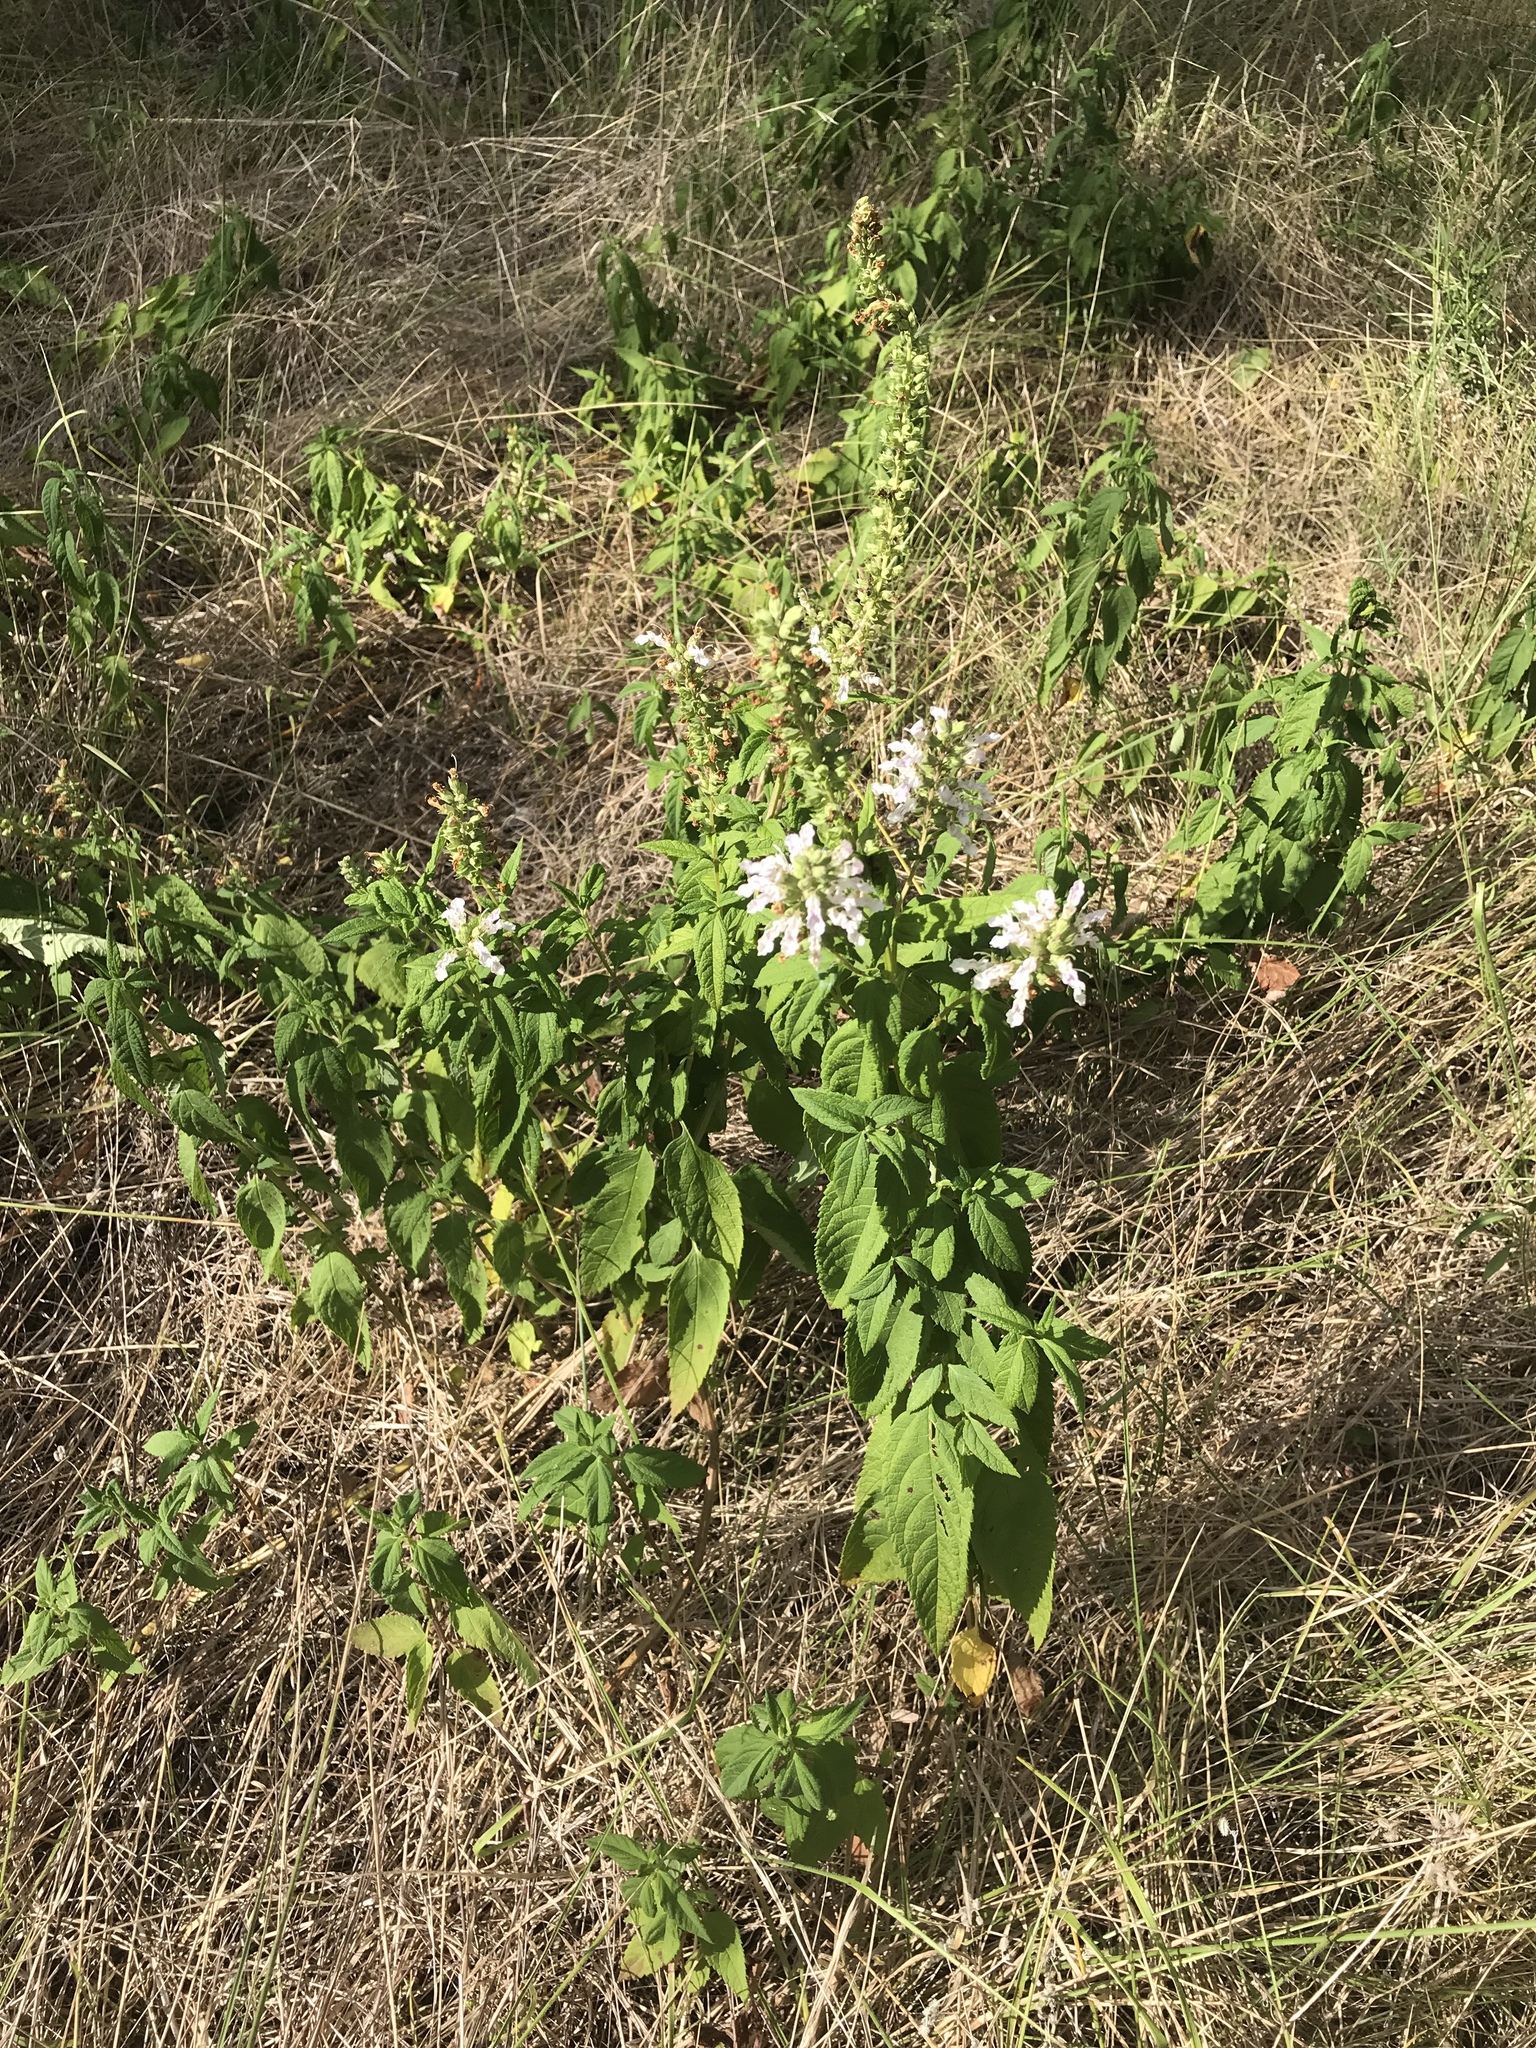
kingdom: Plantae
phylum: Tracheophyta
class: Magnoliopsida
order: Lamiales
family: Lamiaceae
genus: Teucrium
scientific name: Teucrium canadense
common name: American germander
